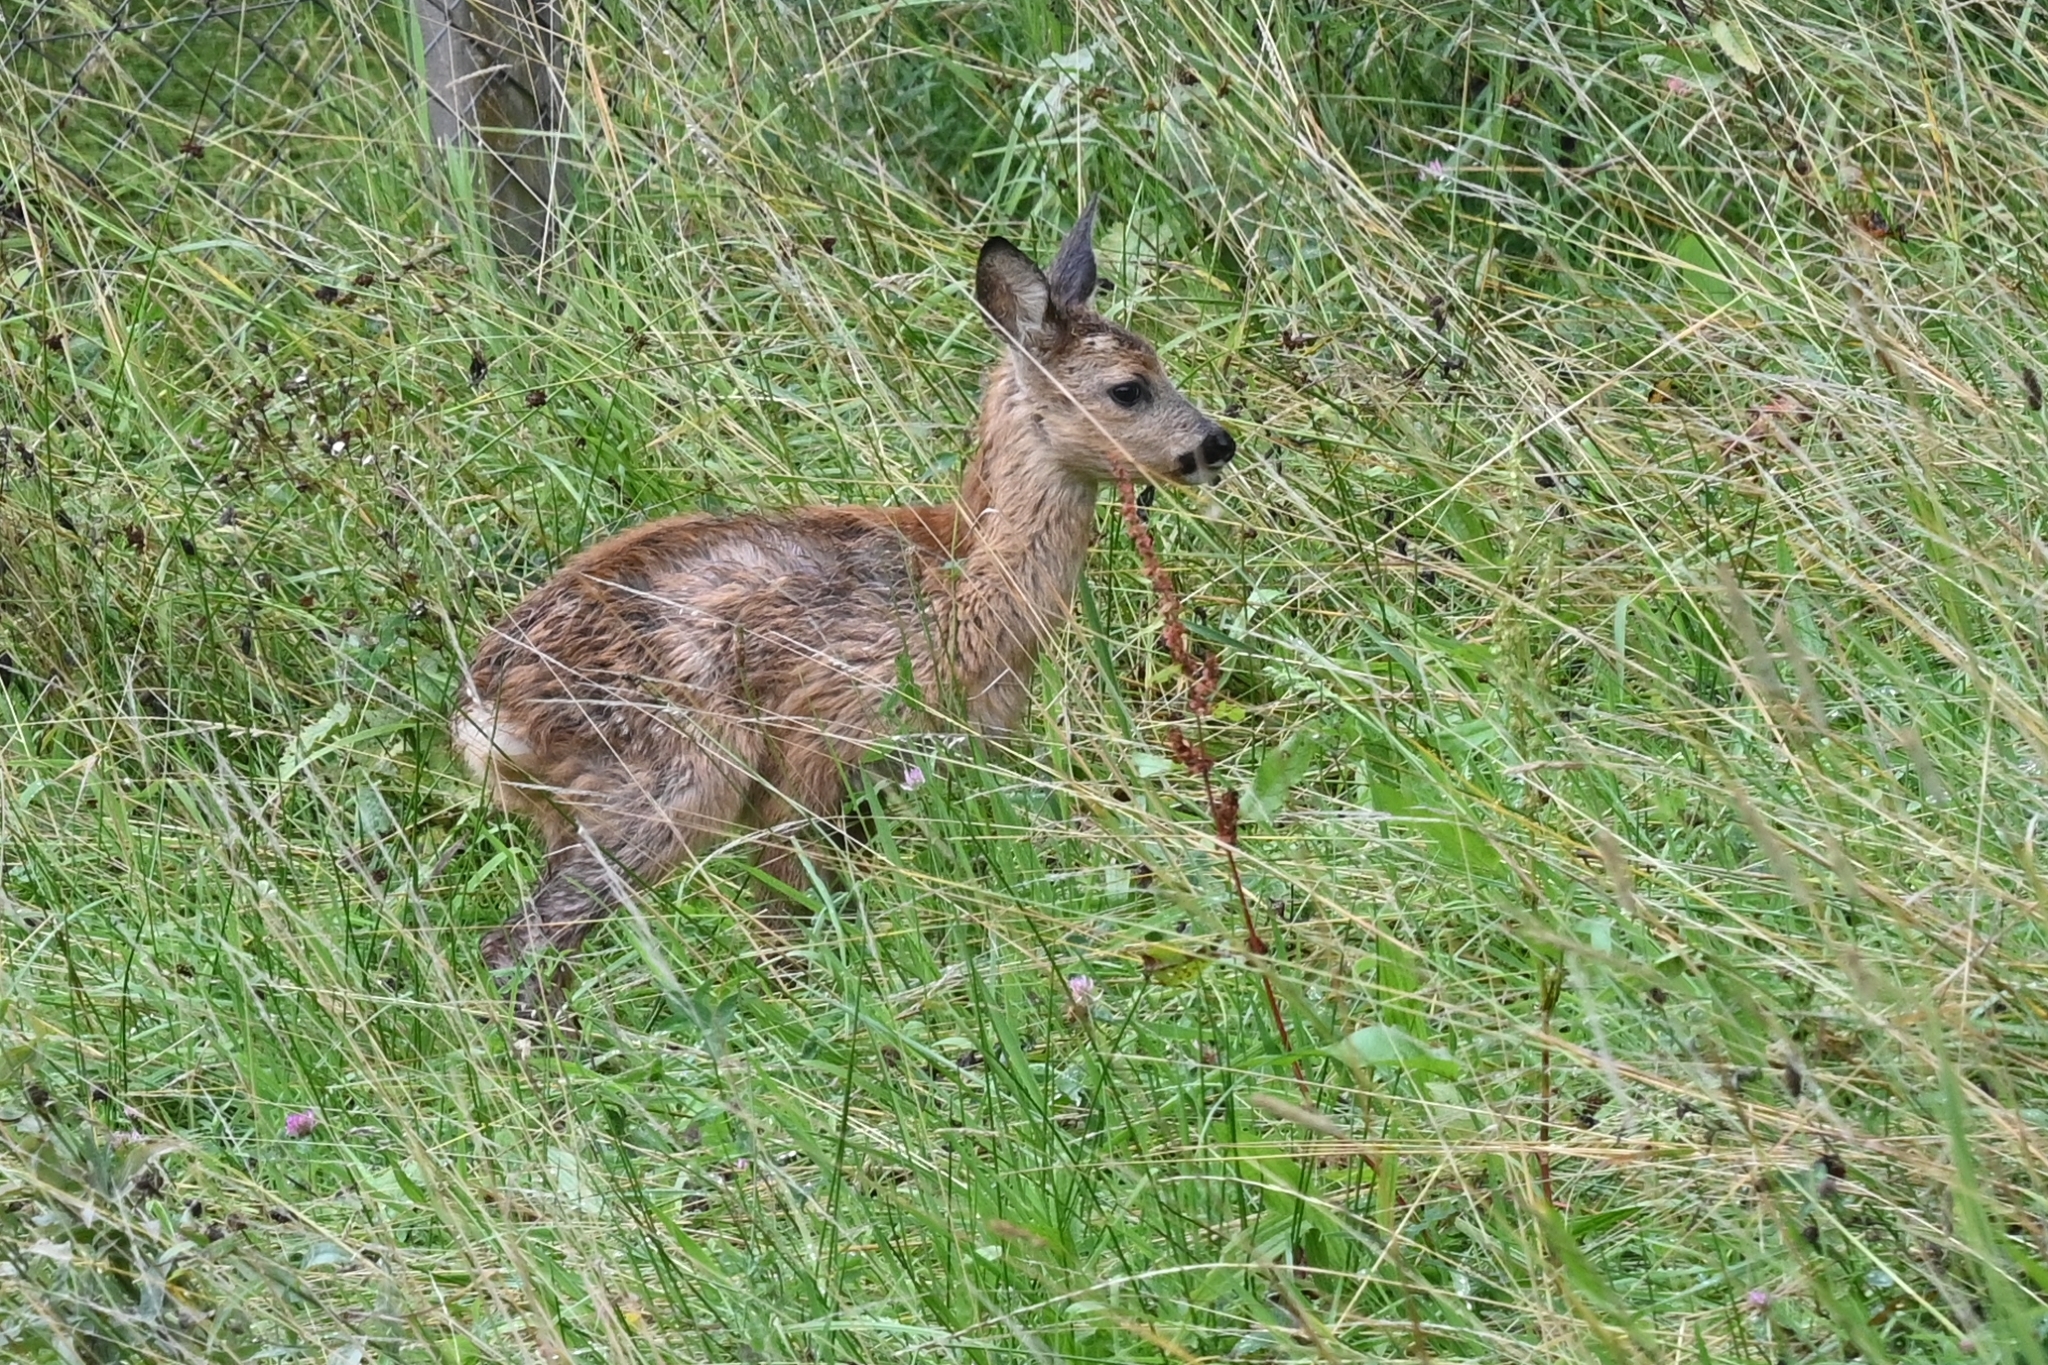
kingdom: Animalia
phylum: Chordata
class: Mammalia
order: Artiodactyla
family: Cervidae
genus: Capreolus
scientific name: Capreolus capreolus
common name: Western roe deer
